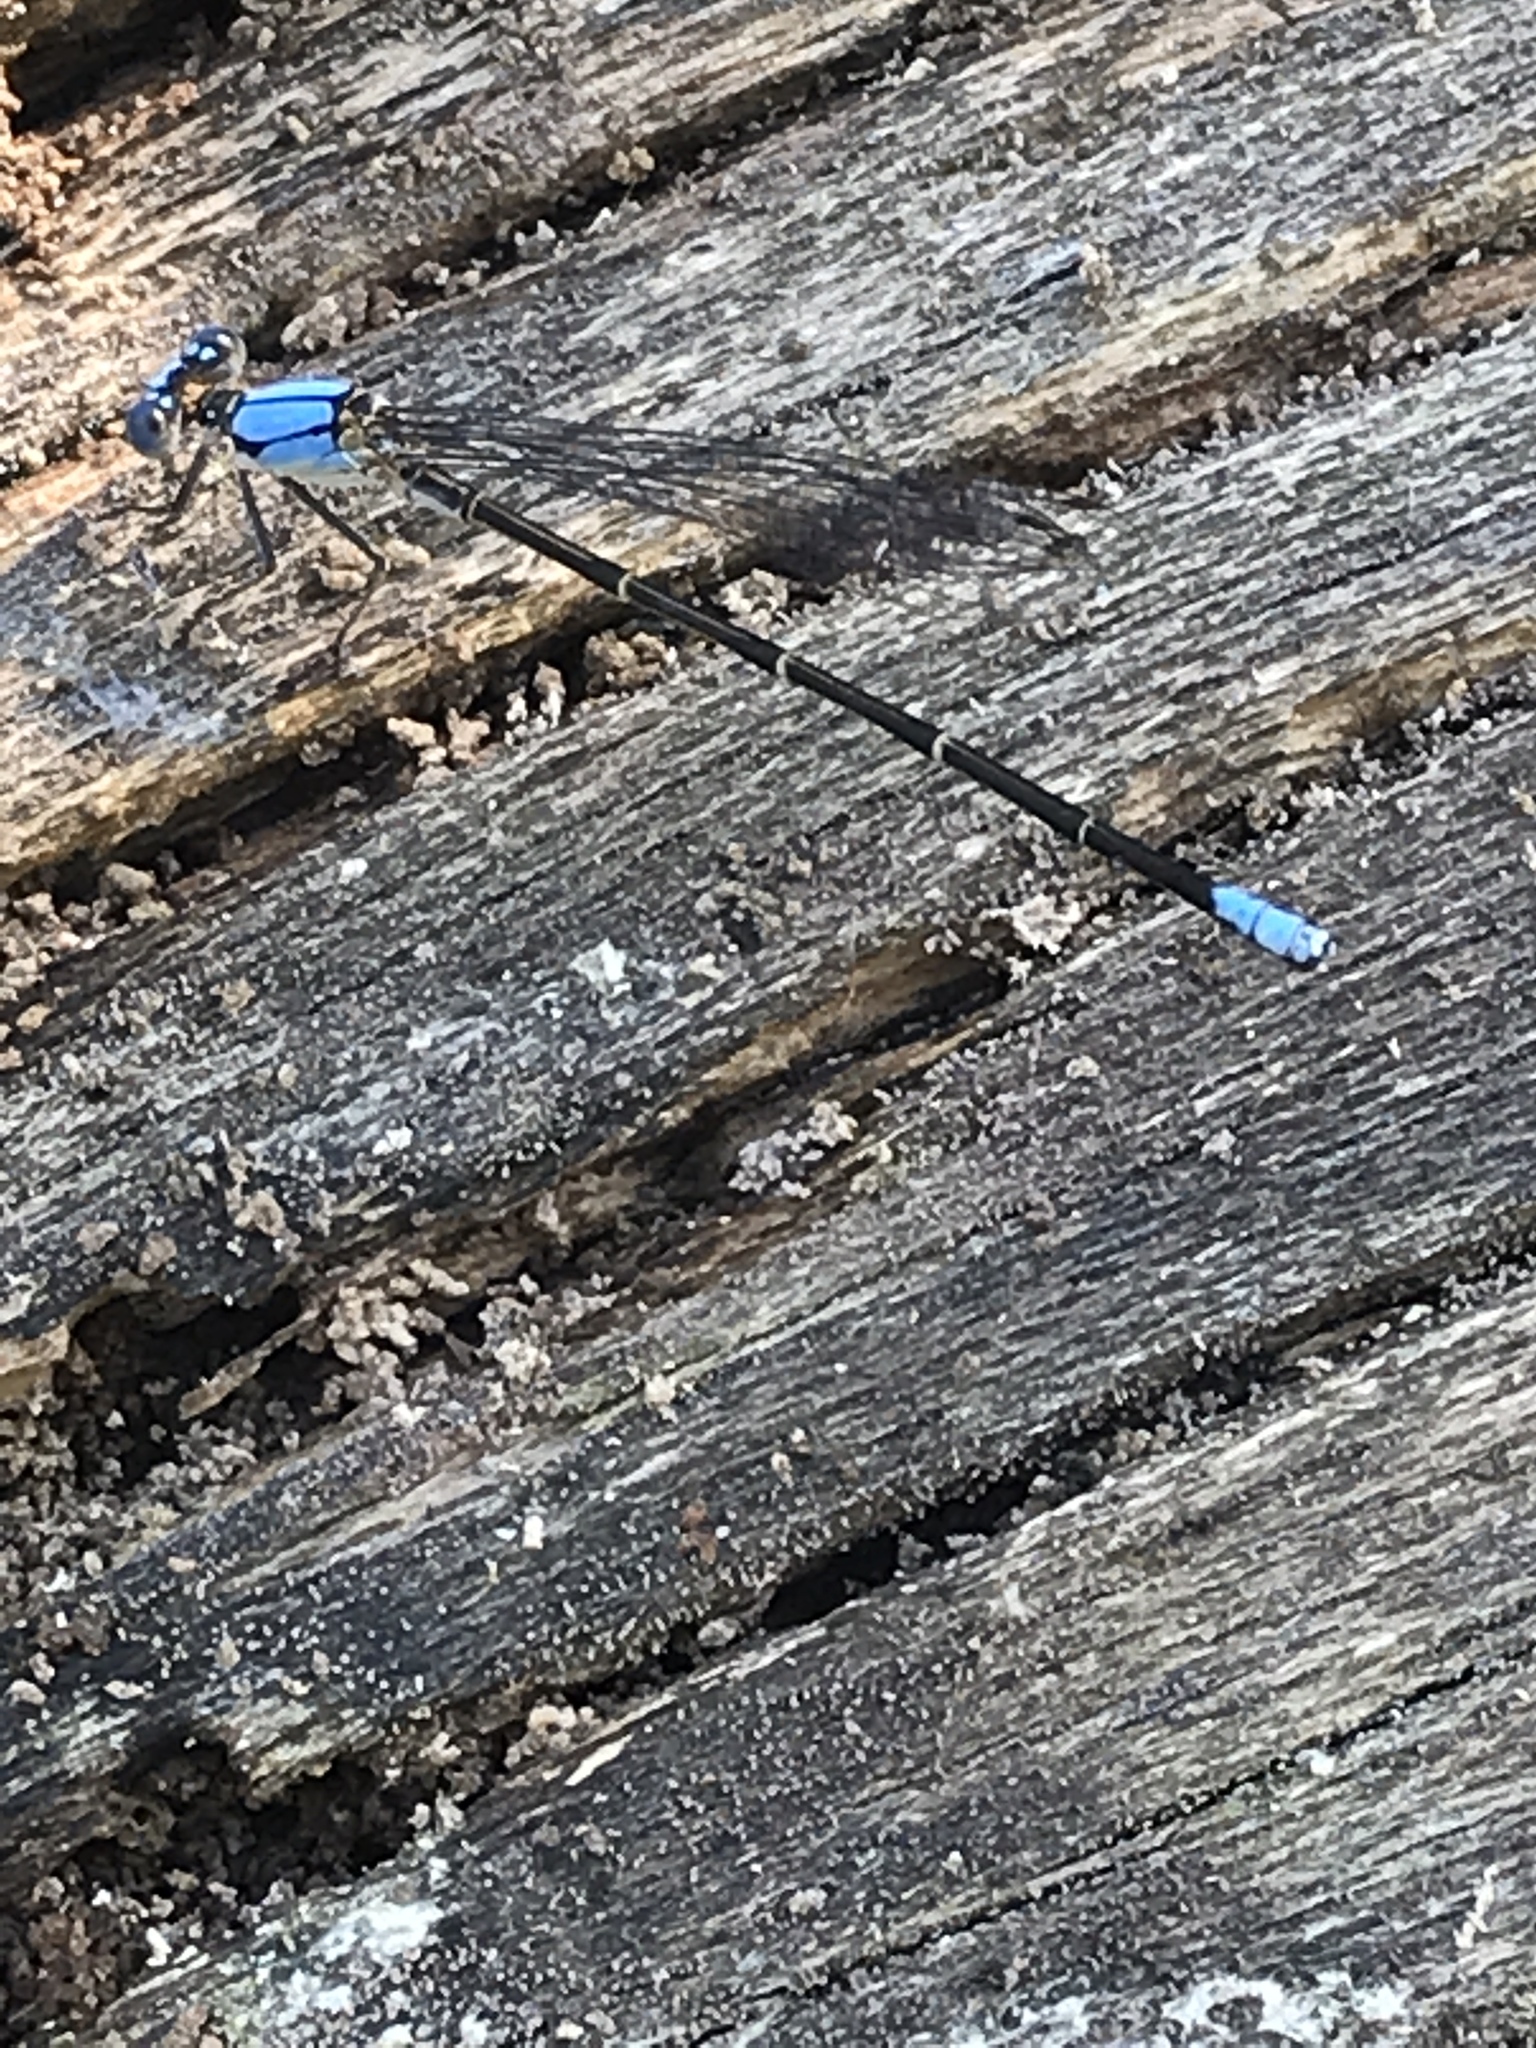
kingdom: Animalia
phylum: Arthropoda
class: Insecta
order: Odonata
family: Coenagrionidae
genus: Argia
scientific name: Argia apicalis
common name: Blue-fronted dancer
